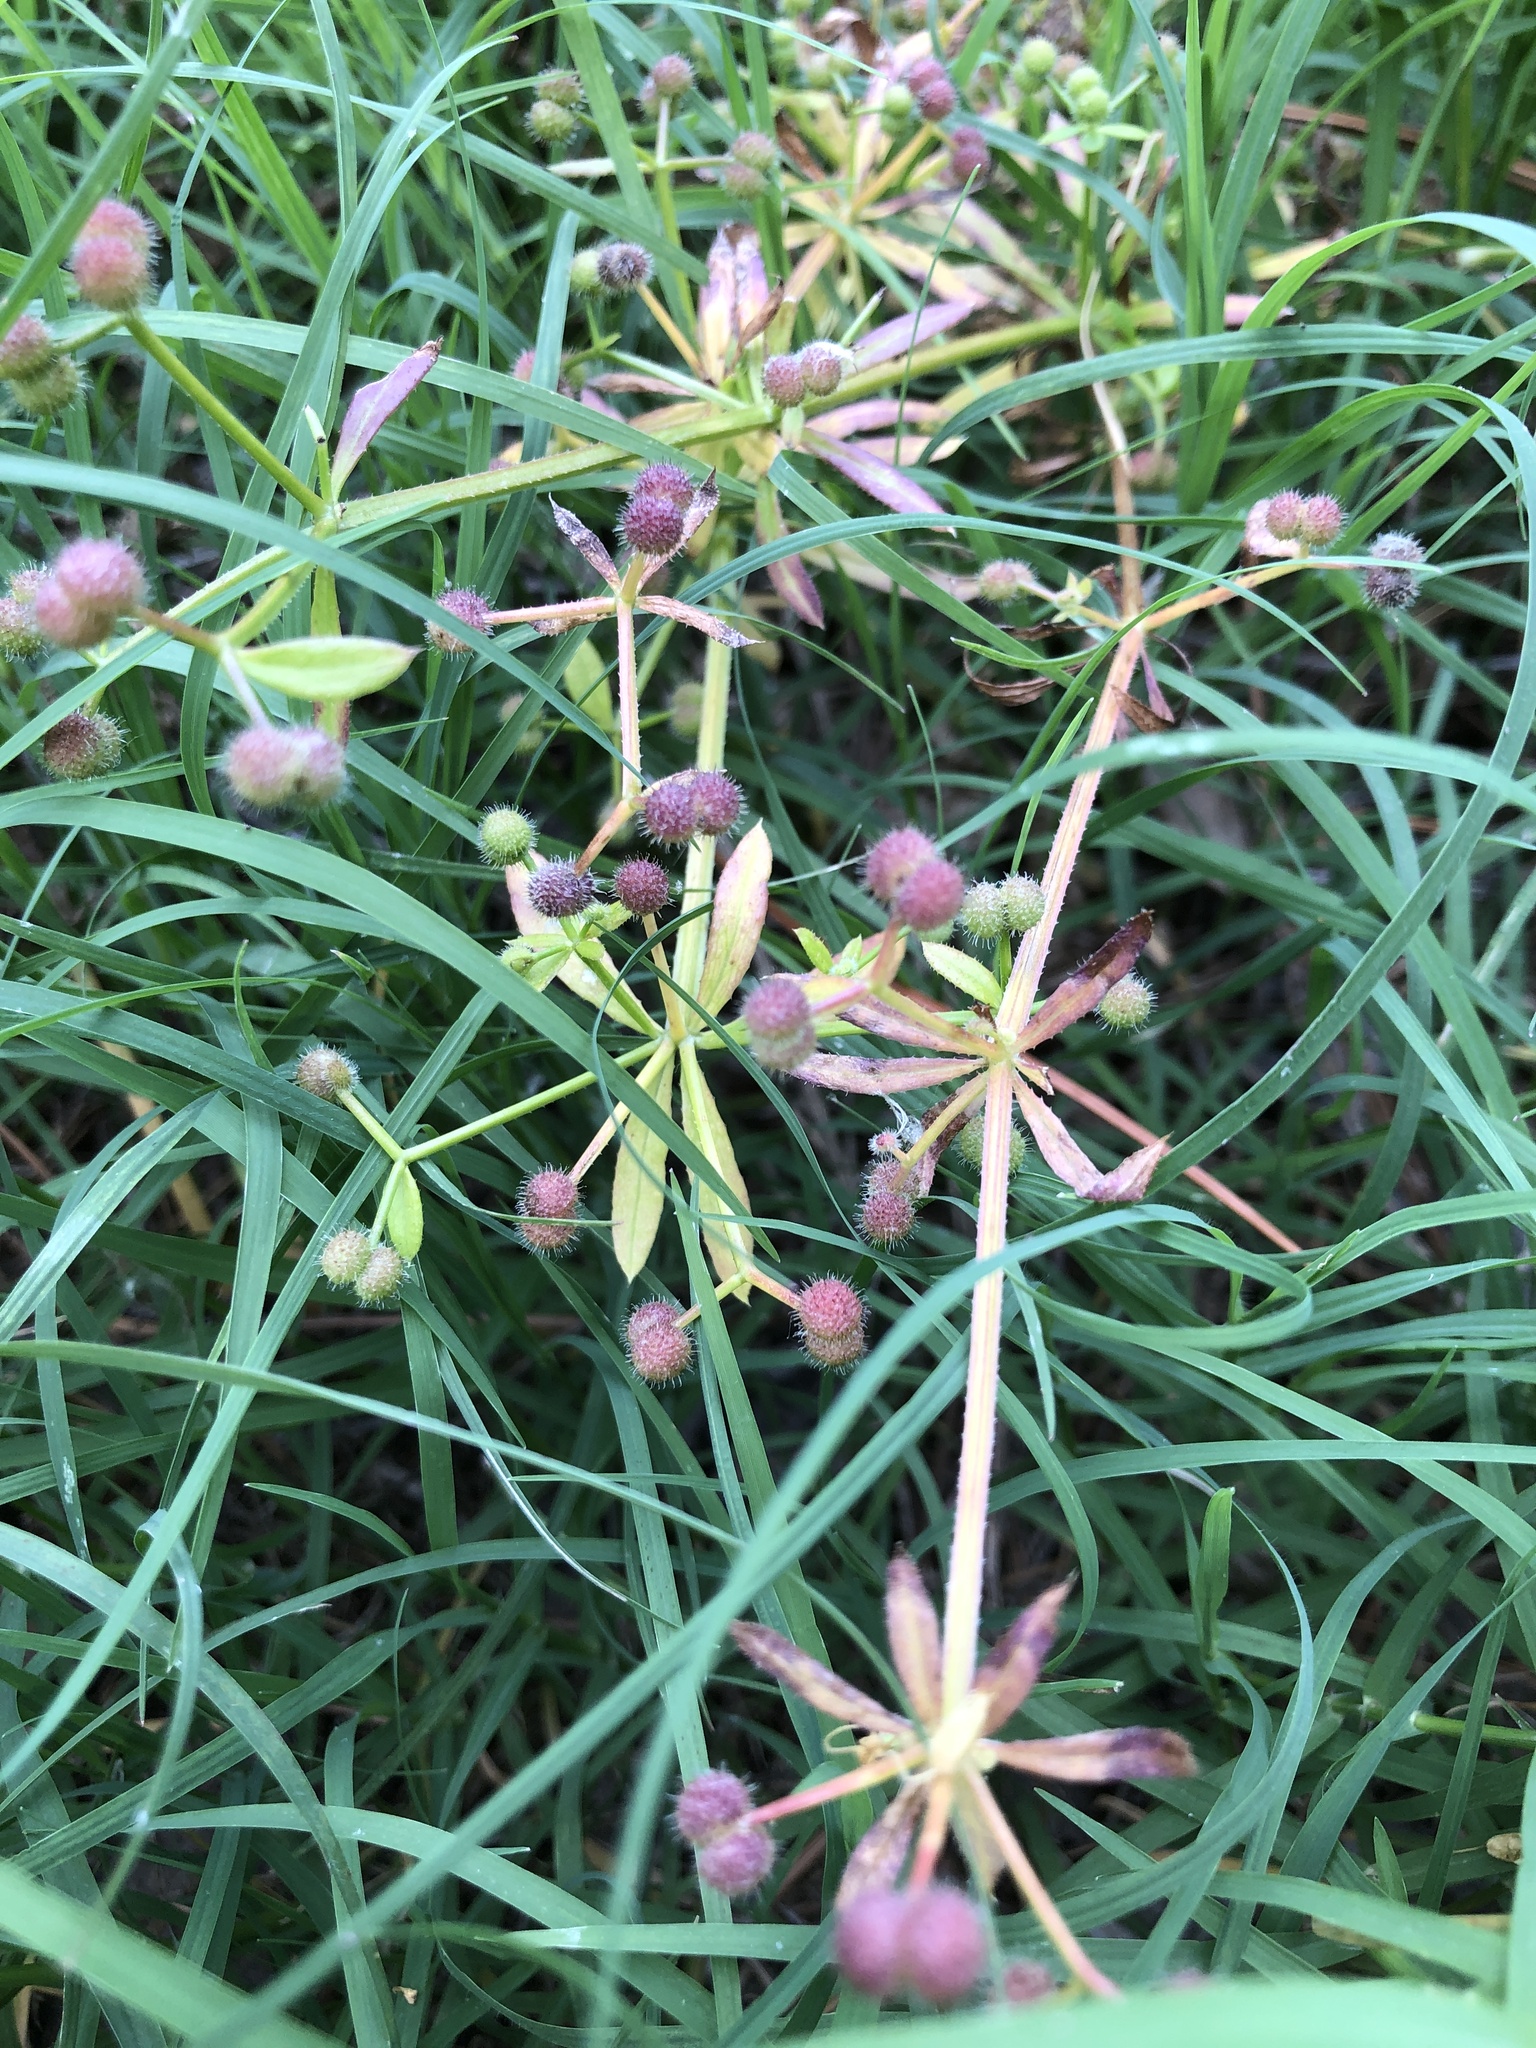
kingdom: Plantae
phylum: Tracheophyta
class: Magnoliopsida
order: Gentianales
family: Rubiaceae
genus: Galium
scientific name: Galium aparine
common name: Cleavers
